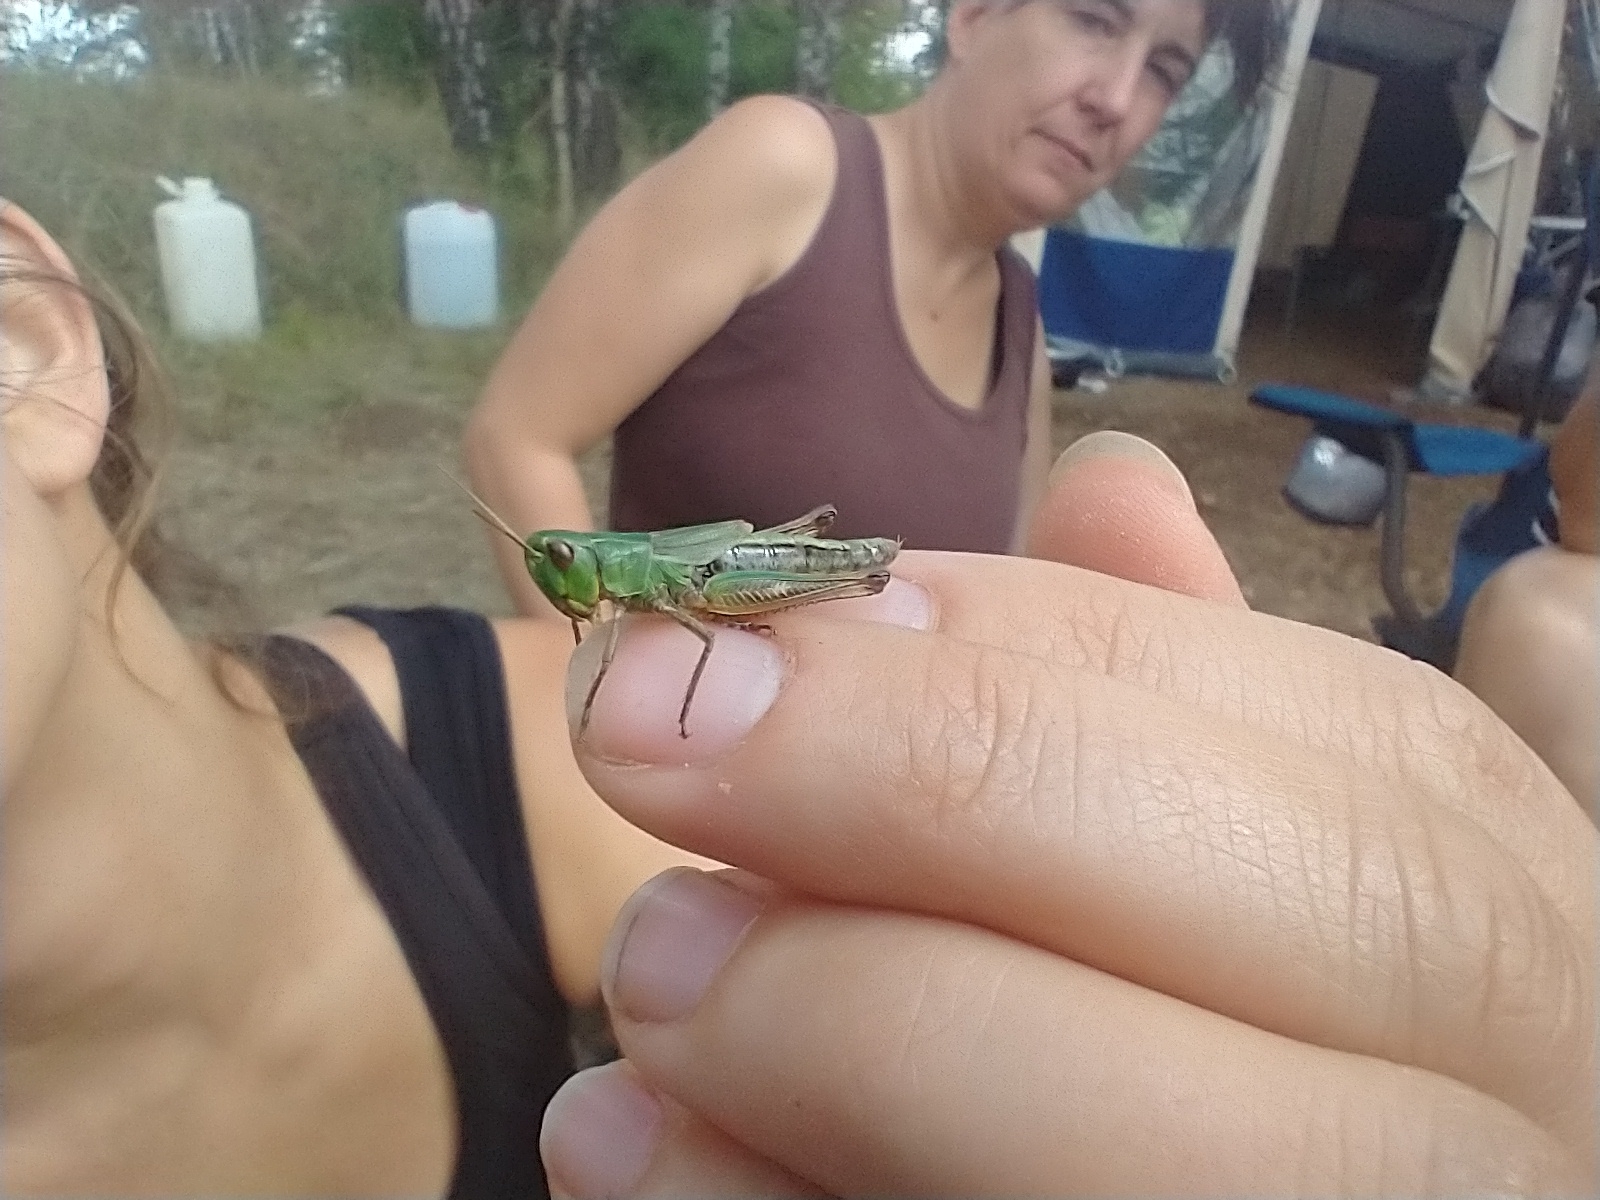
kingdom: Animalia
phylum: Arthropoda
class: Insecta
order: Orthoptera
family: Acrididae
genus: Pseudochorthippus
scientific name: Pseudochorthippus parallelus
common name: Meadow grasshopper
